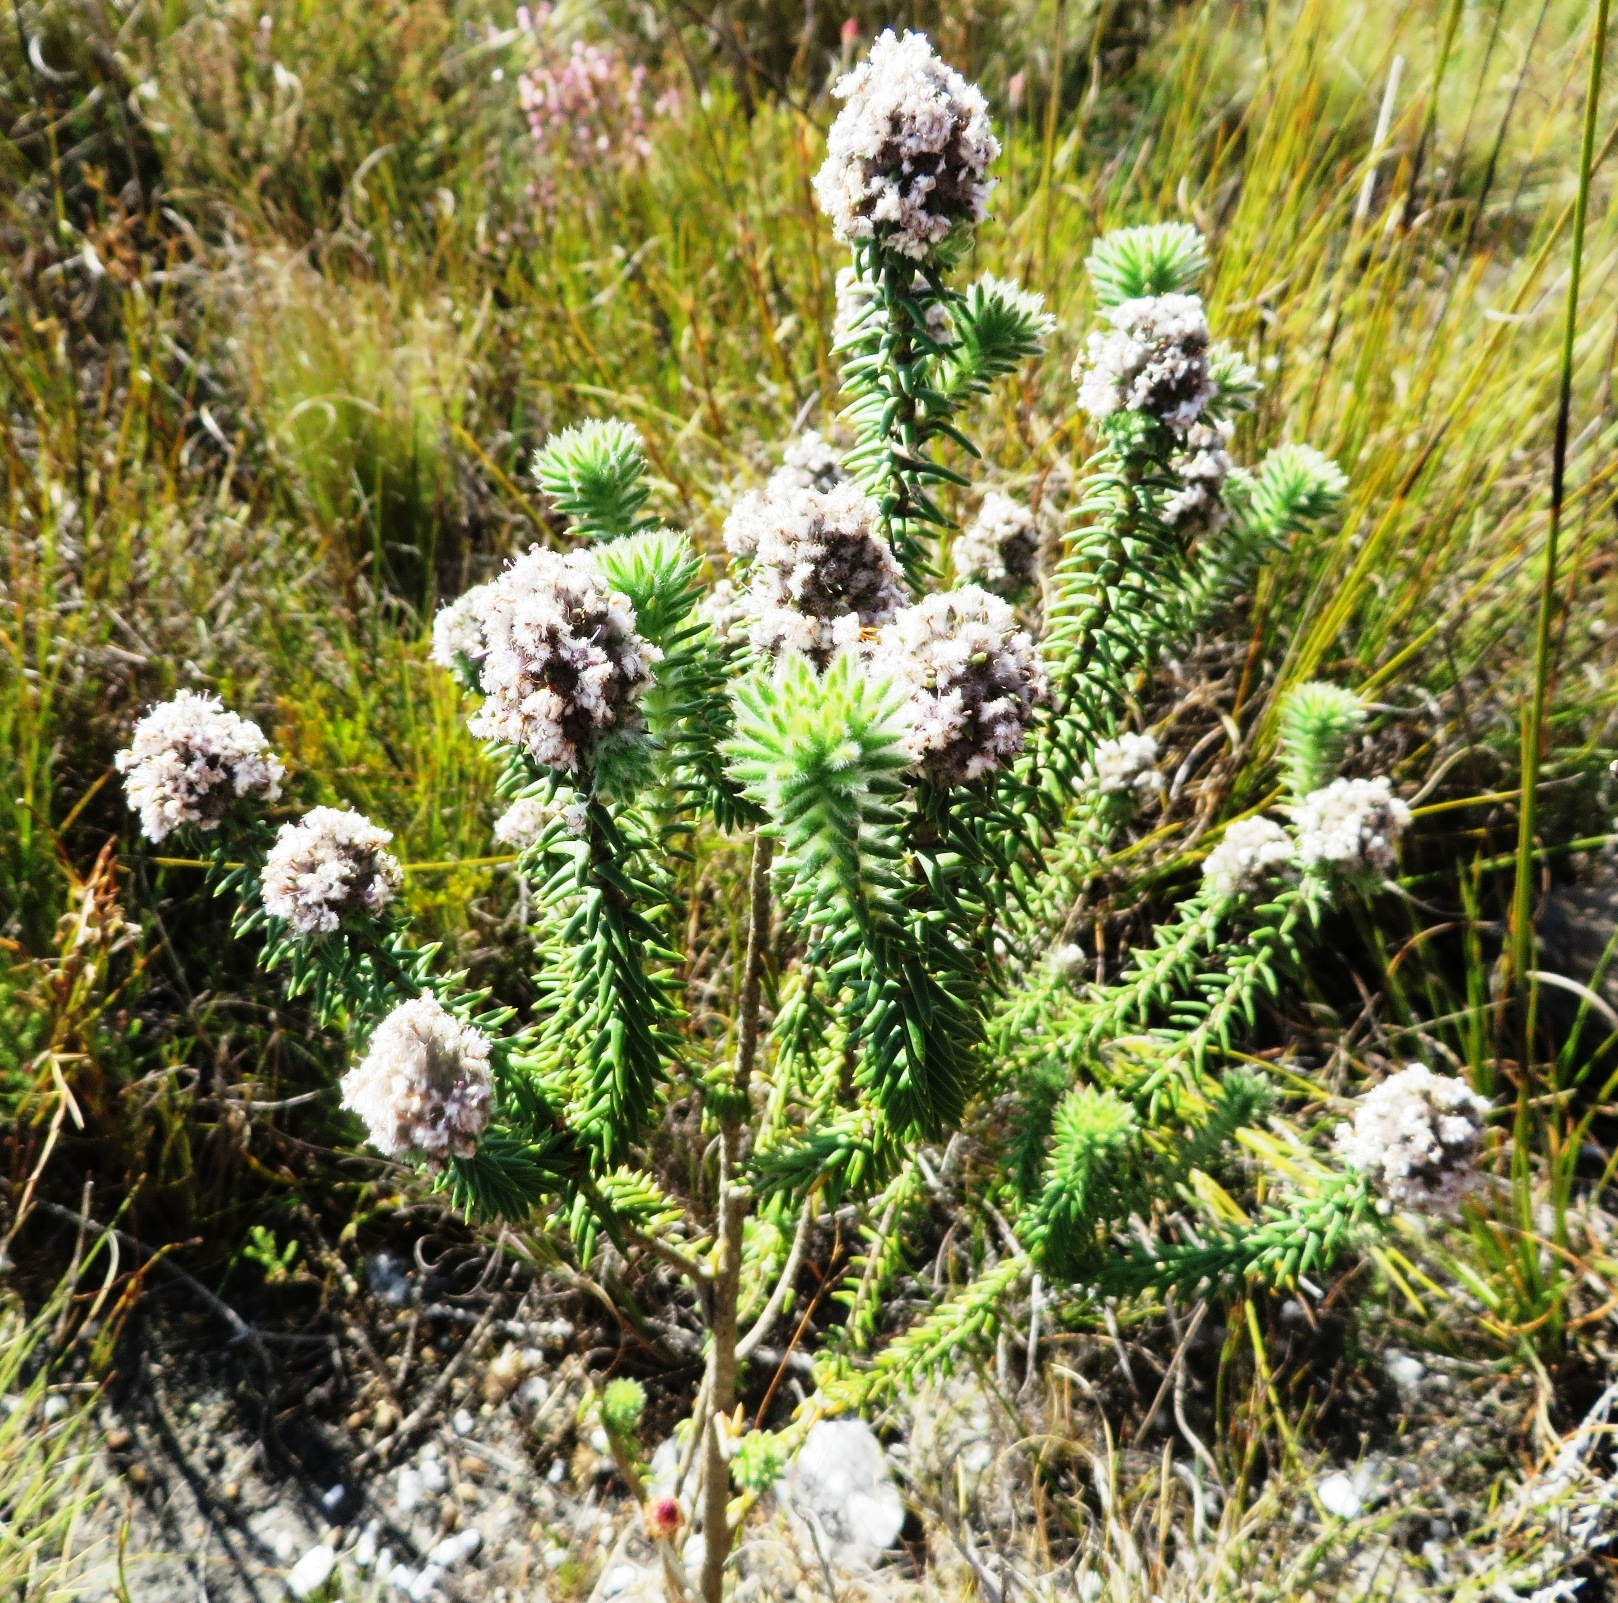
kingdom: Plantae
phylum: Tracheophyta
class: Magnoliopsida
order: Lamiales
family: Stilbaceae
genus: Kogelbergia
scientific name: Kogelbergia verticillata
